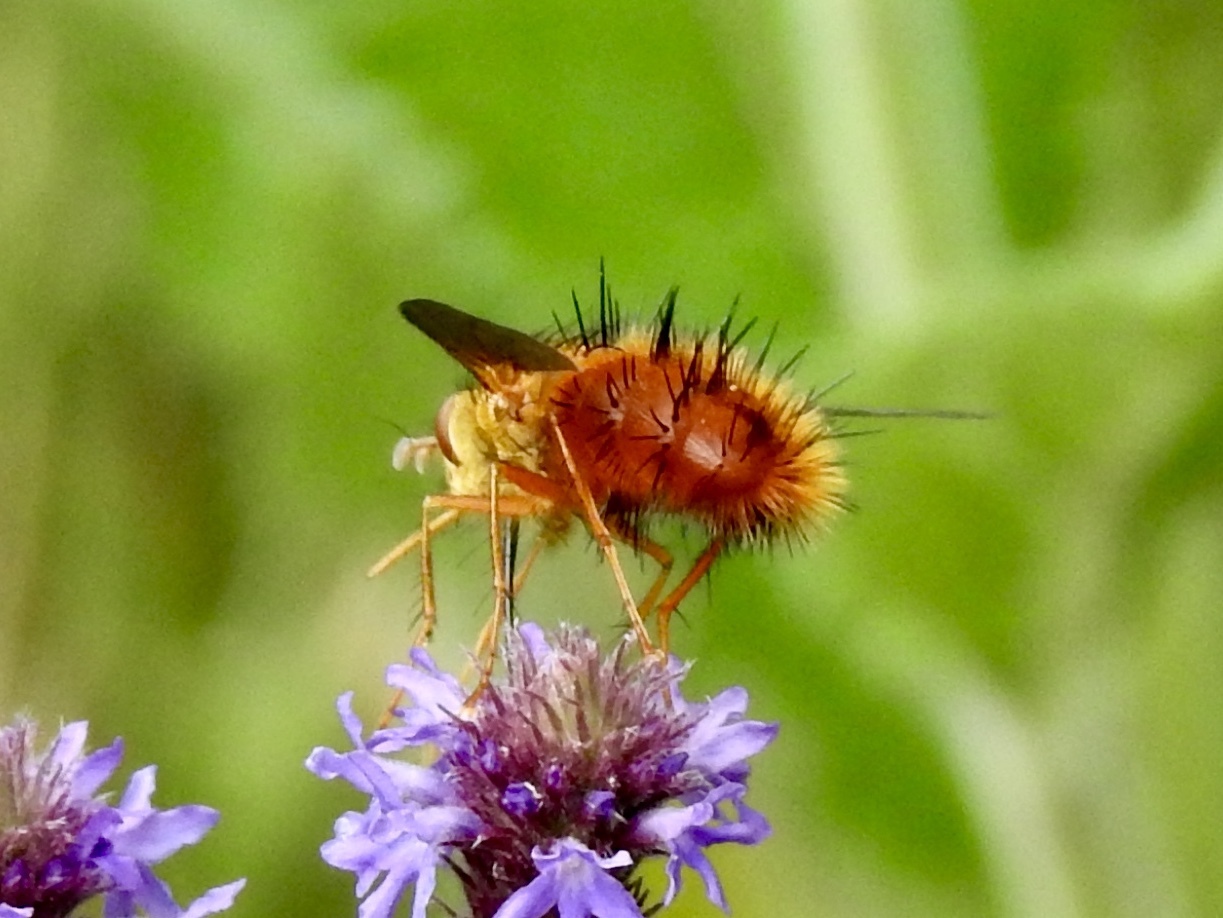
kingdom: Animalia
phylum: Arthropoda
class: Insecta
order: Diptera
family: Tachinidae
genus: Adejeania
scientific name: Adejeania vexatrix
